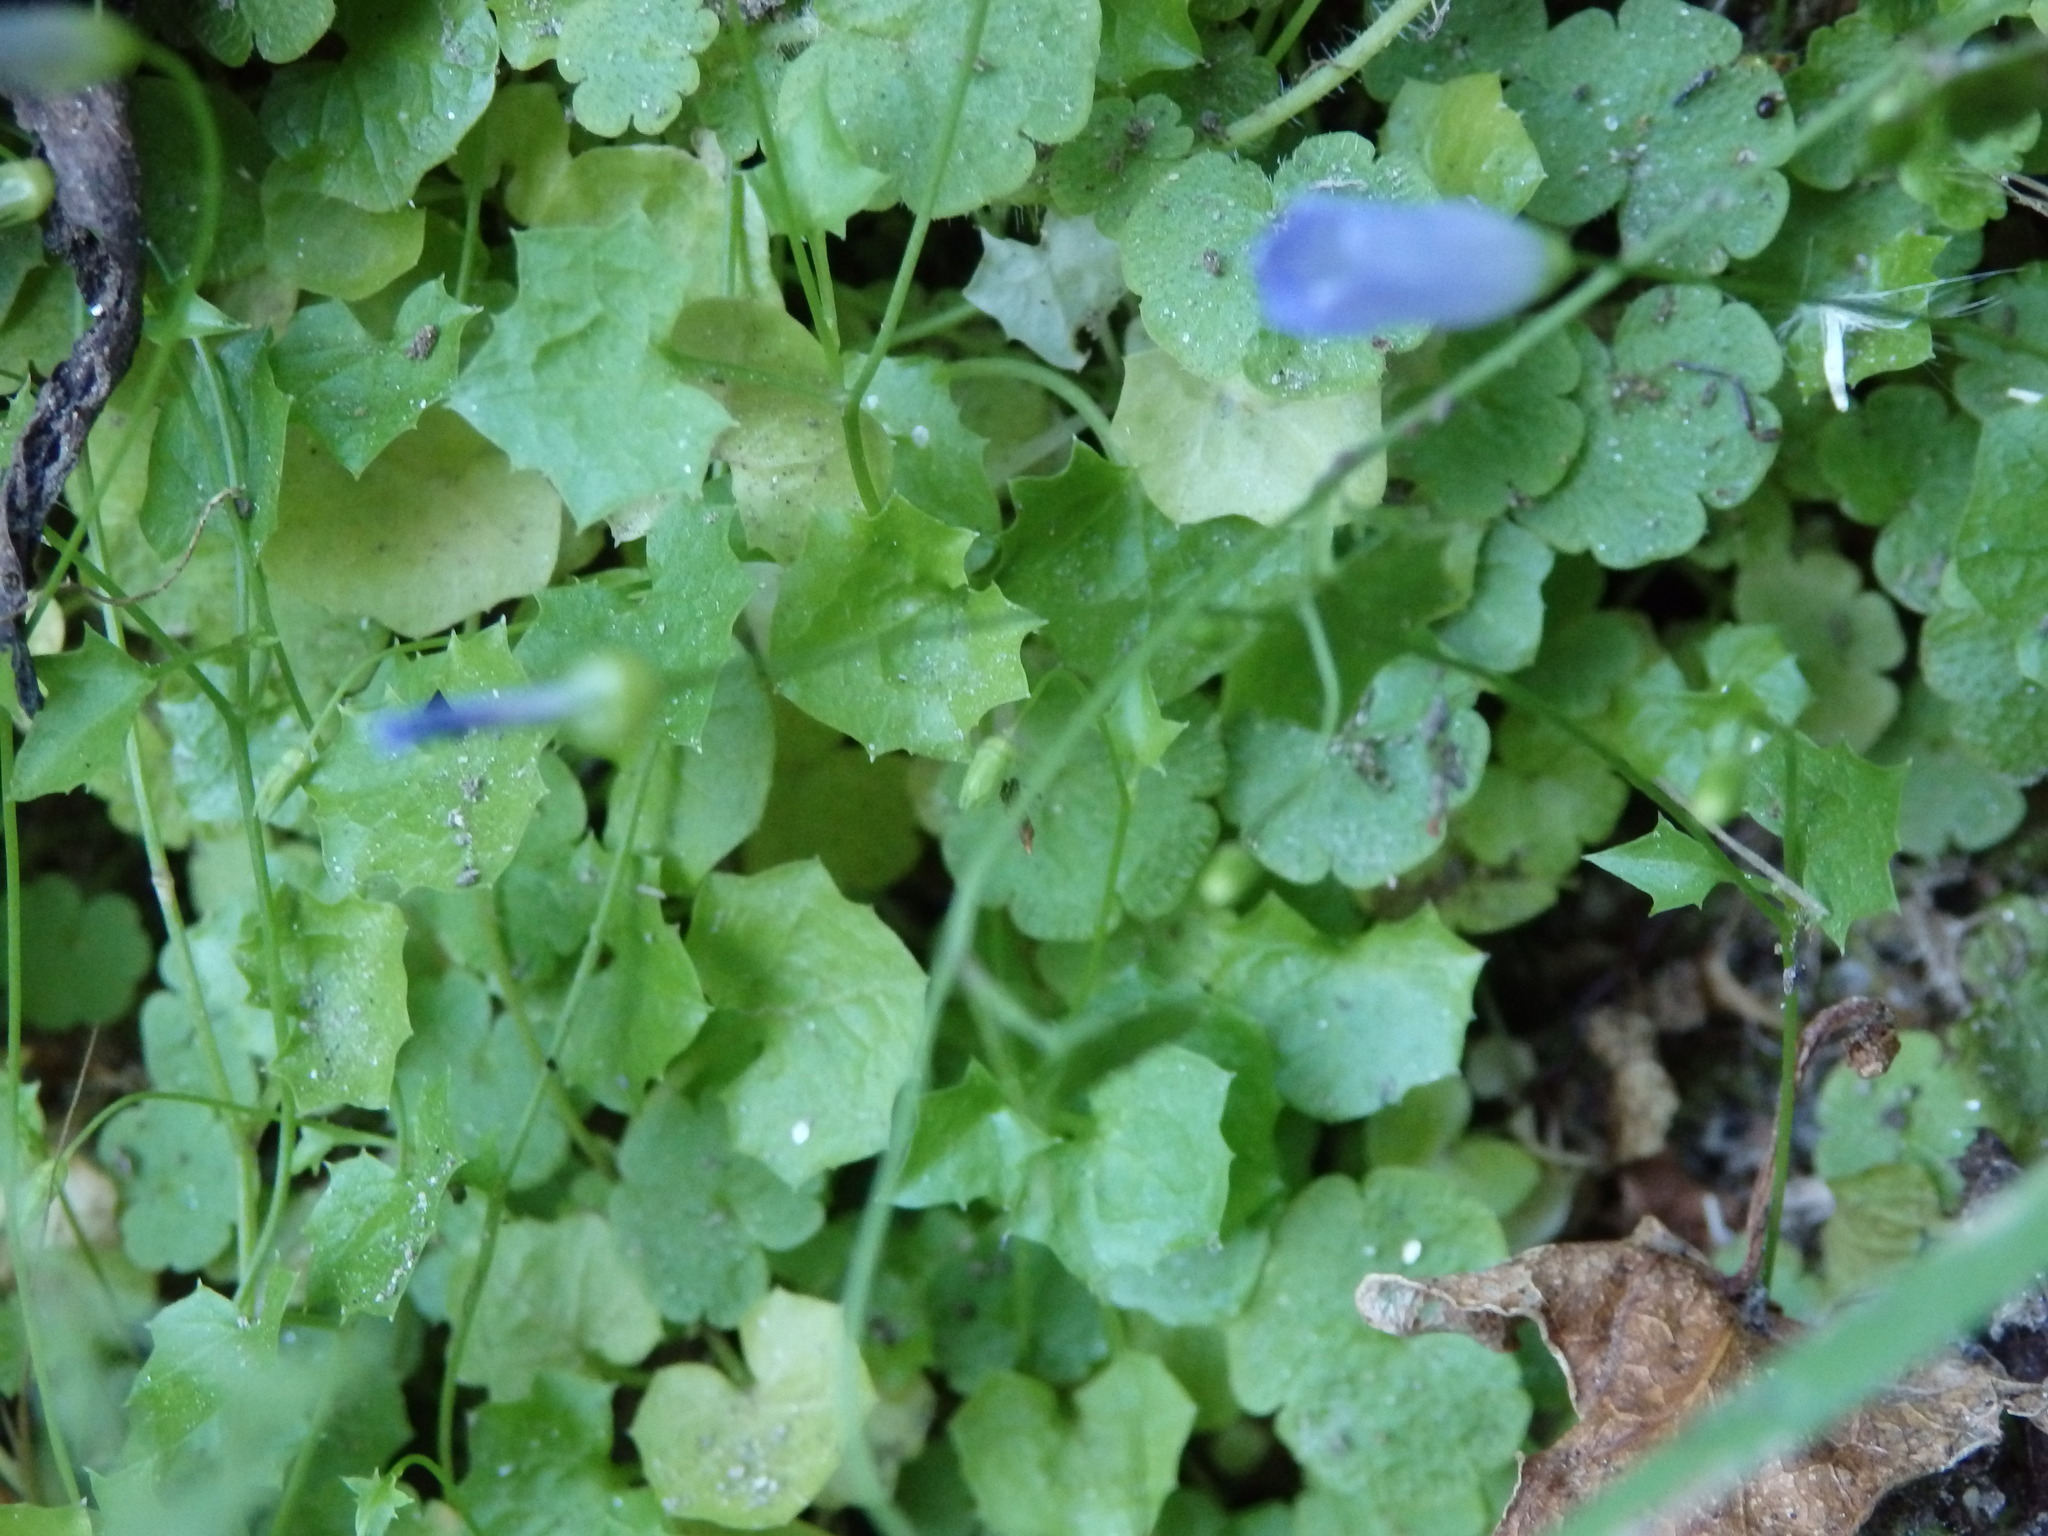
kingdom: Plantae
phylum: Tracheophyta
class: Magnoliopsida
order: Asterales
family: Campanulaceae
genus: Hesperocodon
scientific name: Hesperocodon hederaceus
